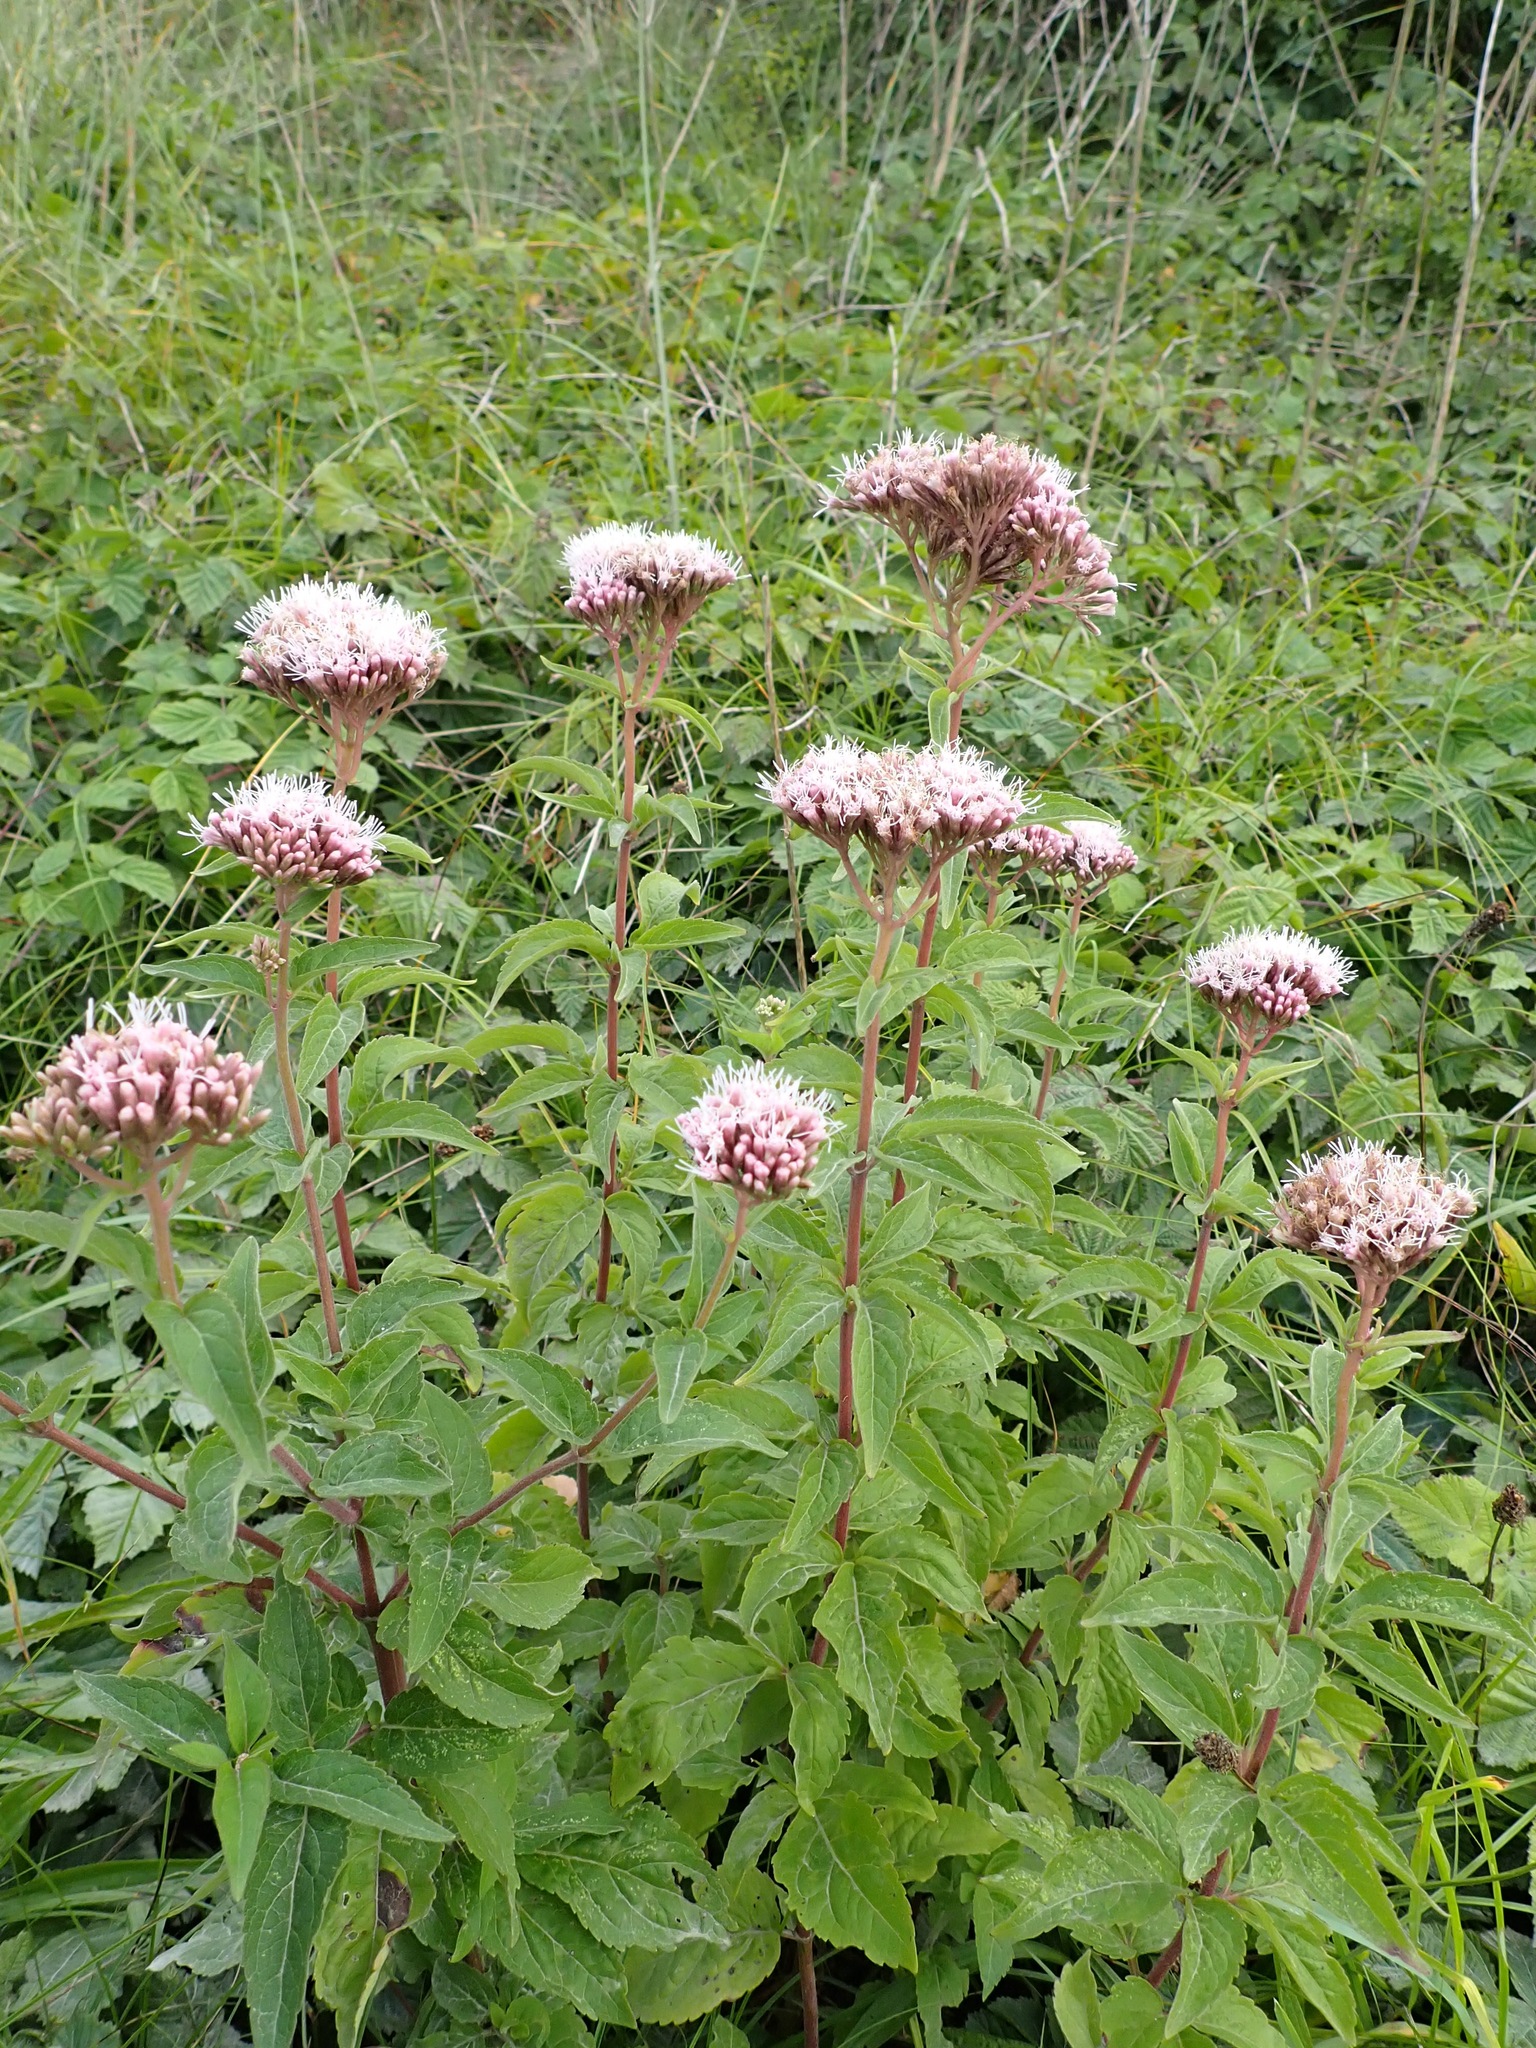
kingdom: Plantae
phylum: Tracheophyta
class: Magnoliopsida
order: Asterales
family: Asteraceae
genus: Eupatorium
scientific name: Eupatorium cannabinum
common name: Hemp-agrimony
